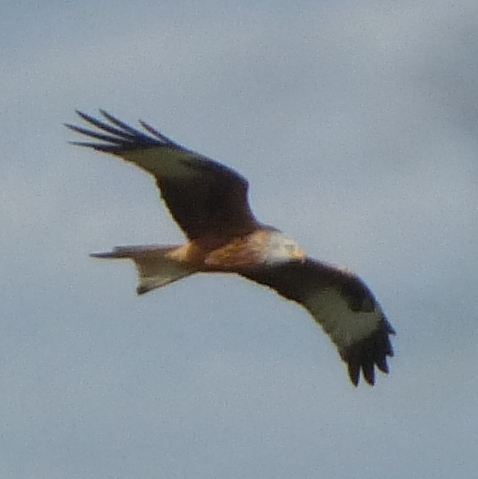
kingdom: Animalia
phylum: Chordata
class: Aves
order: Accipitriformes
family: Accipitridae
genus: Milvus
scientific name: Milvus milvus
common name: Red kite
